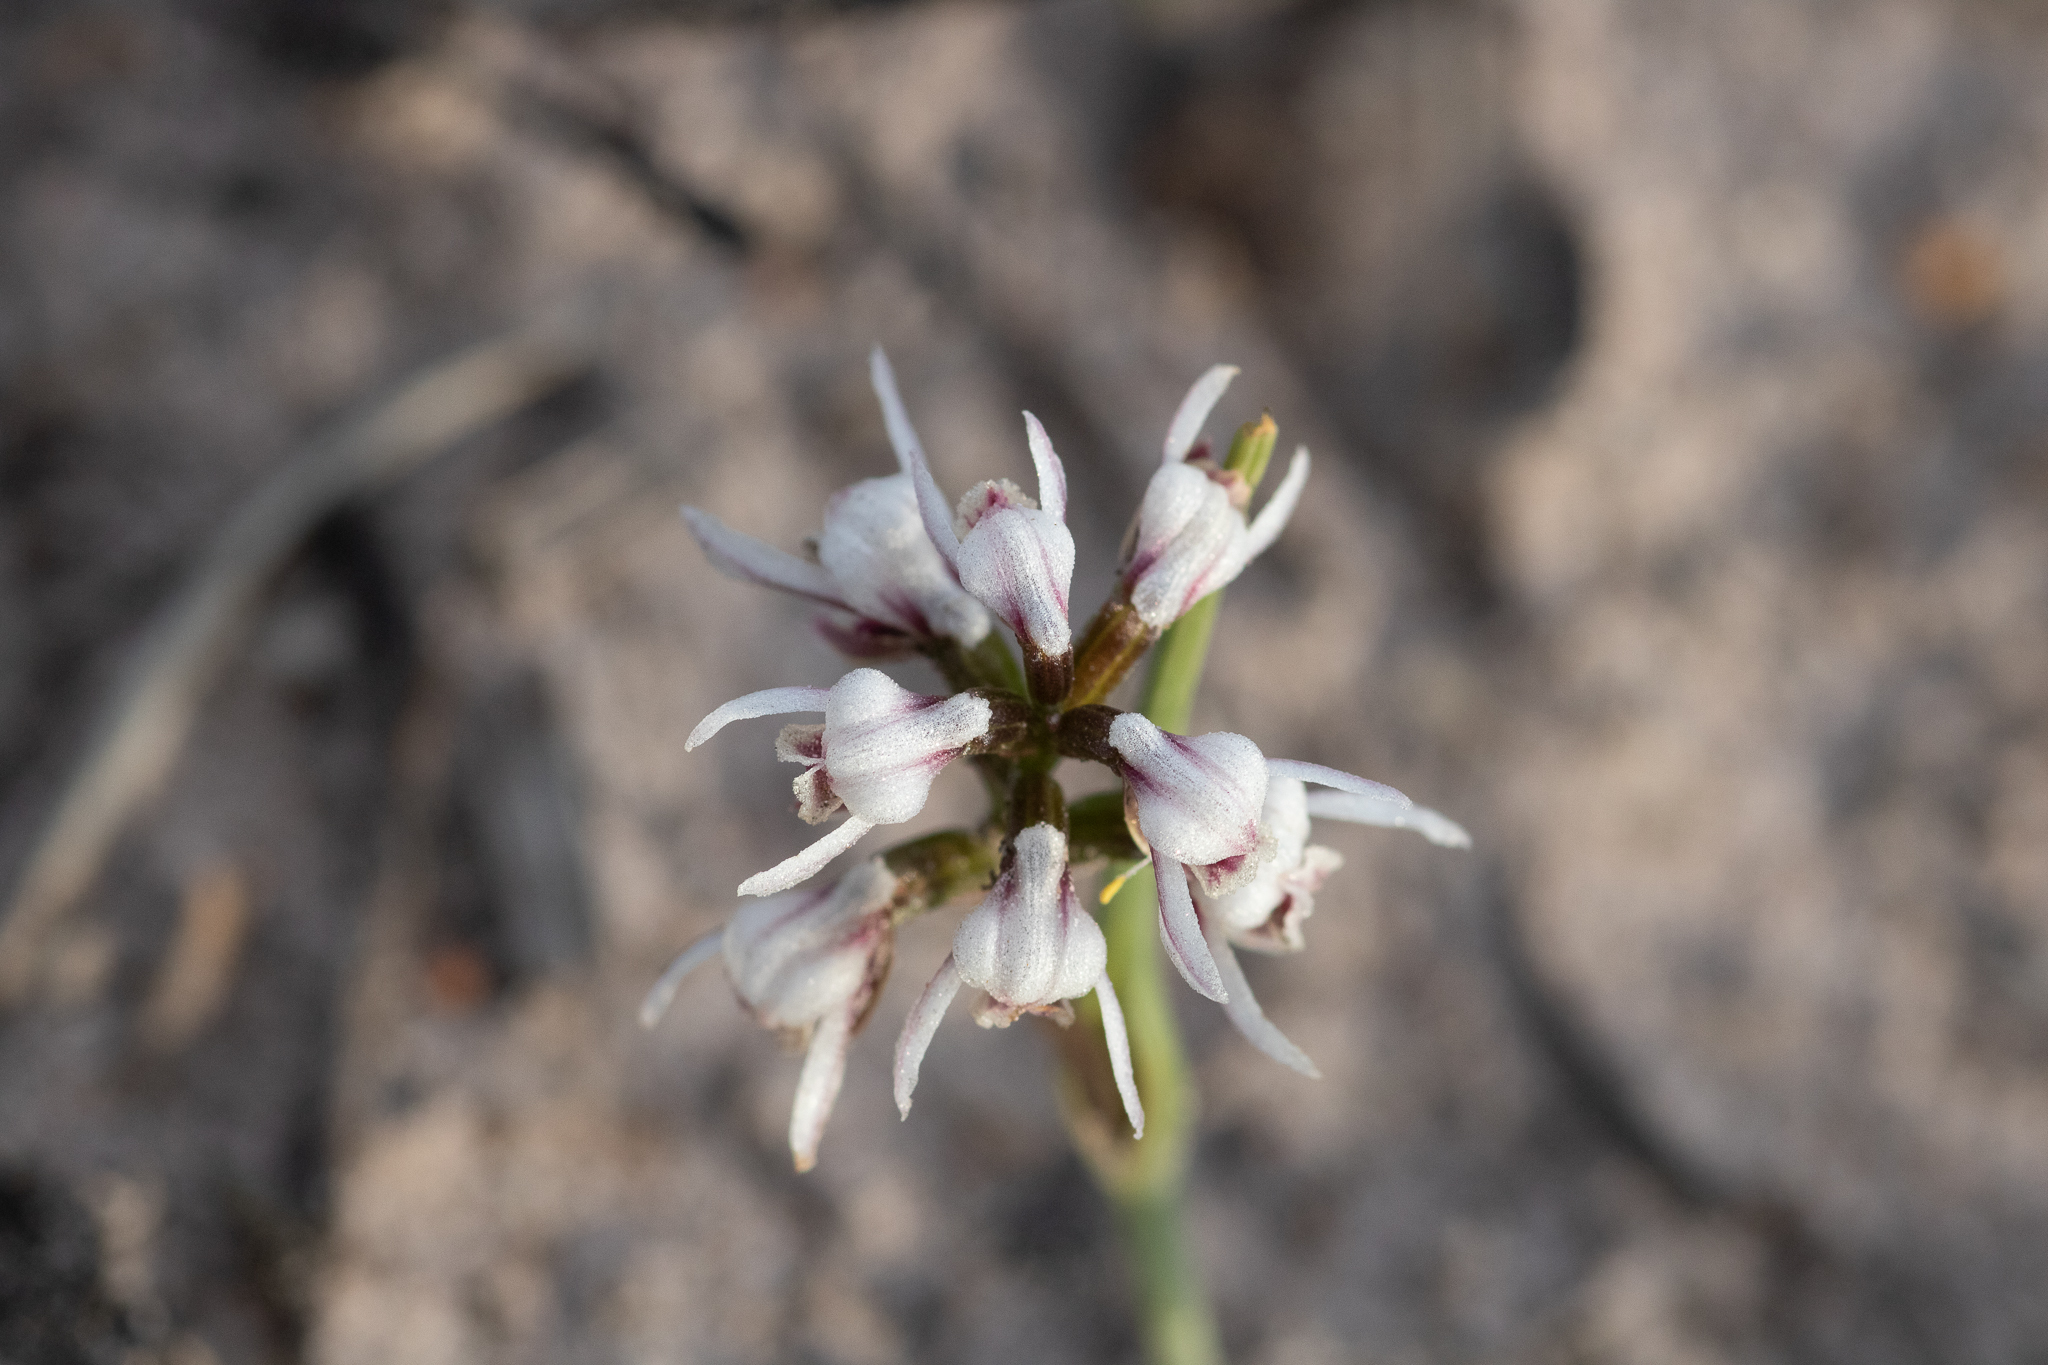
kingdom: Plantae
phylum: Tracheophyta
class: Liliopsida
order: Asparagales
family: Orchidaceae
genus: Prasophyllum
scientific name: Prasophyllum cucullatum
